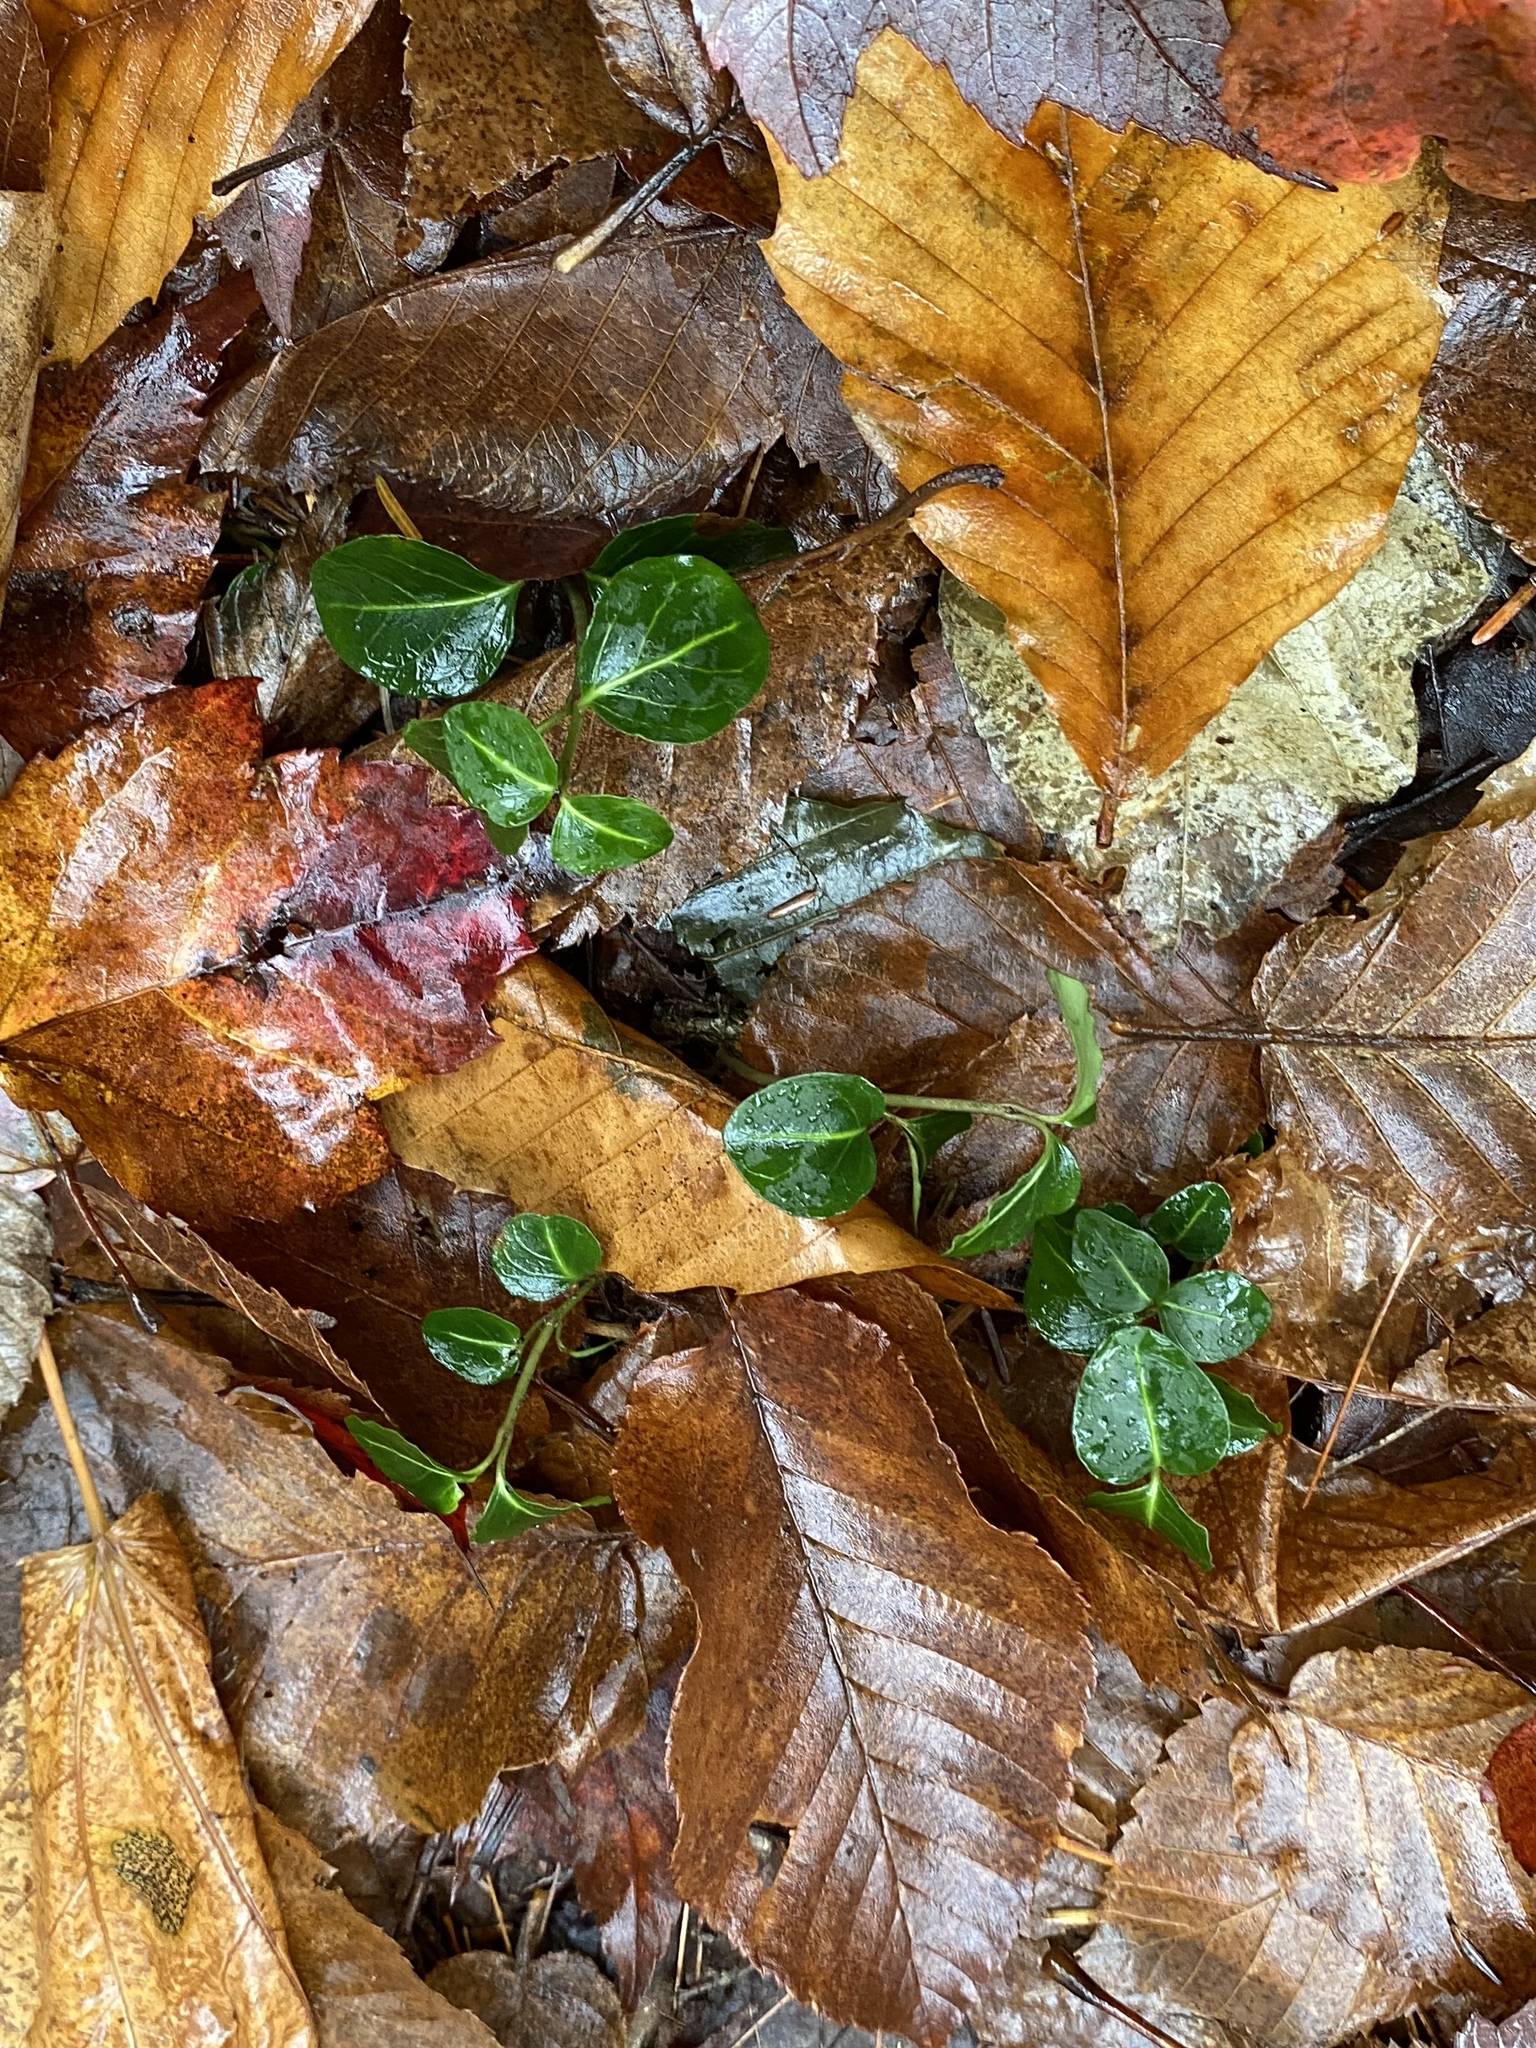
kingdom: Plantae
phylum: Tracheophyta
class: Magnoliopsida
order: Gentianales
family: Rubiaceae
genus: Mitchella
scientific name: Mitchella repens
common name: Partridge-berry
